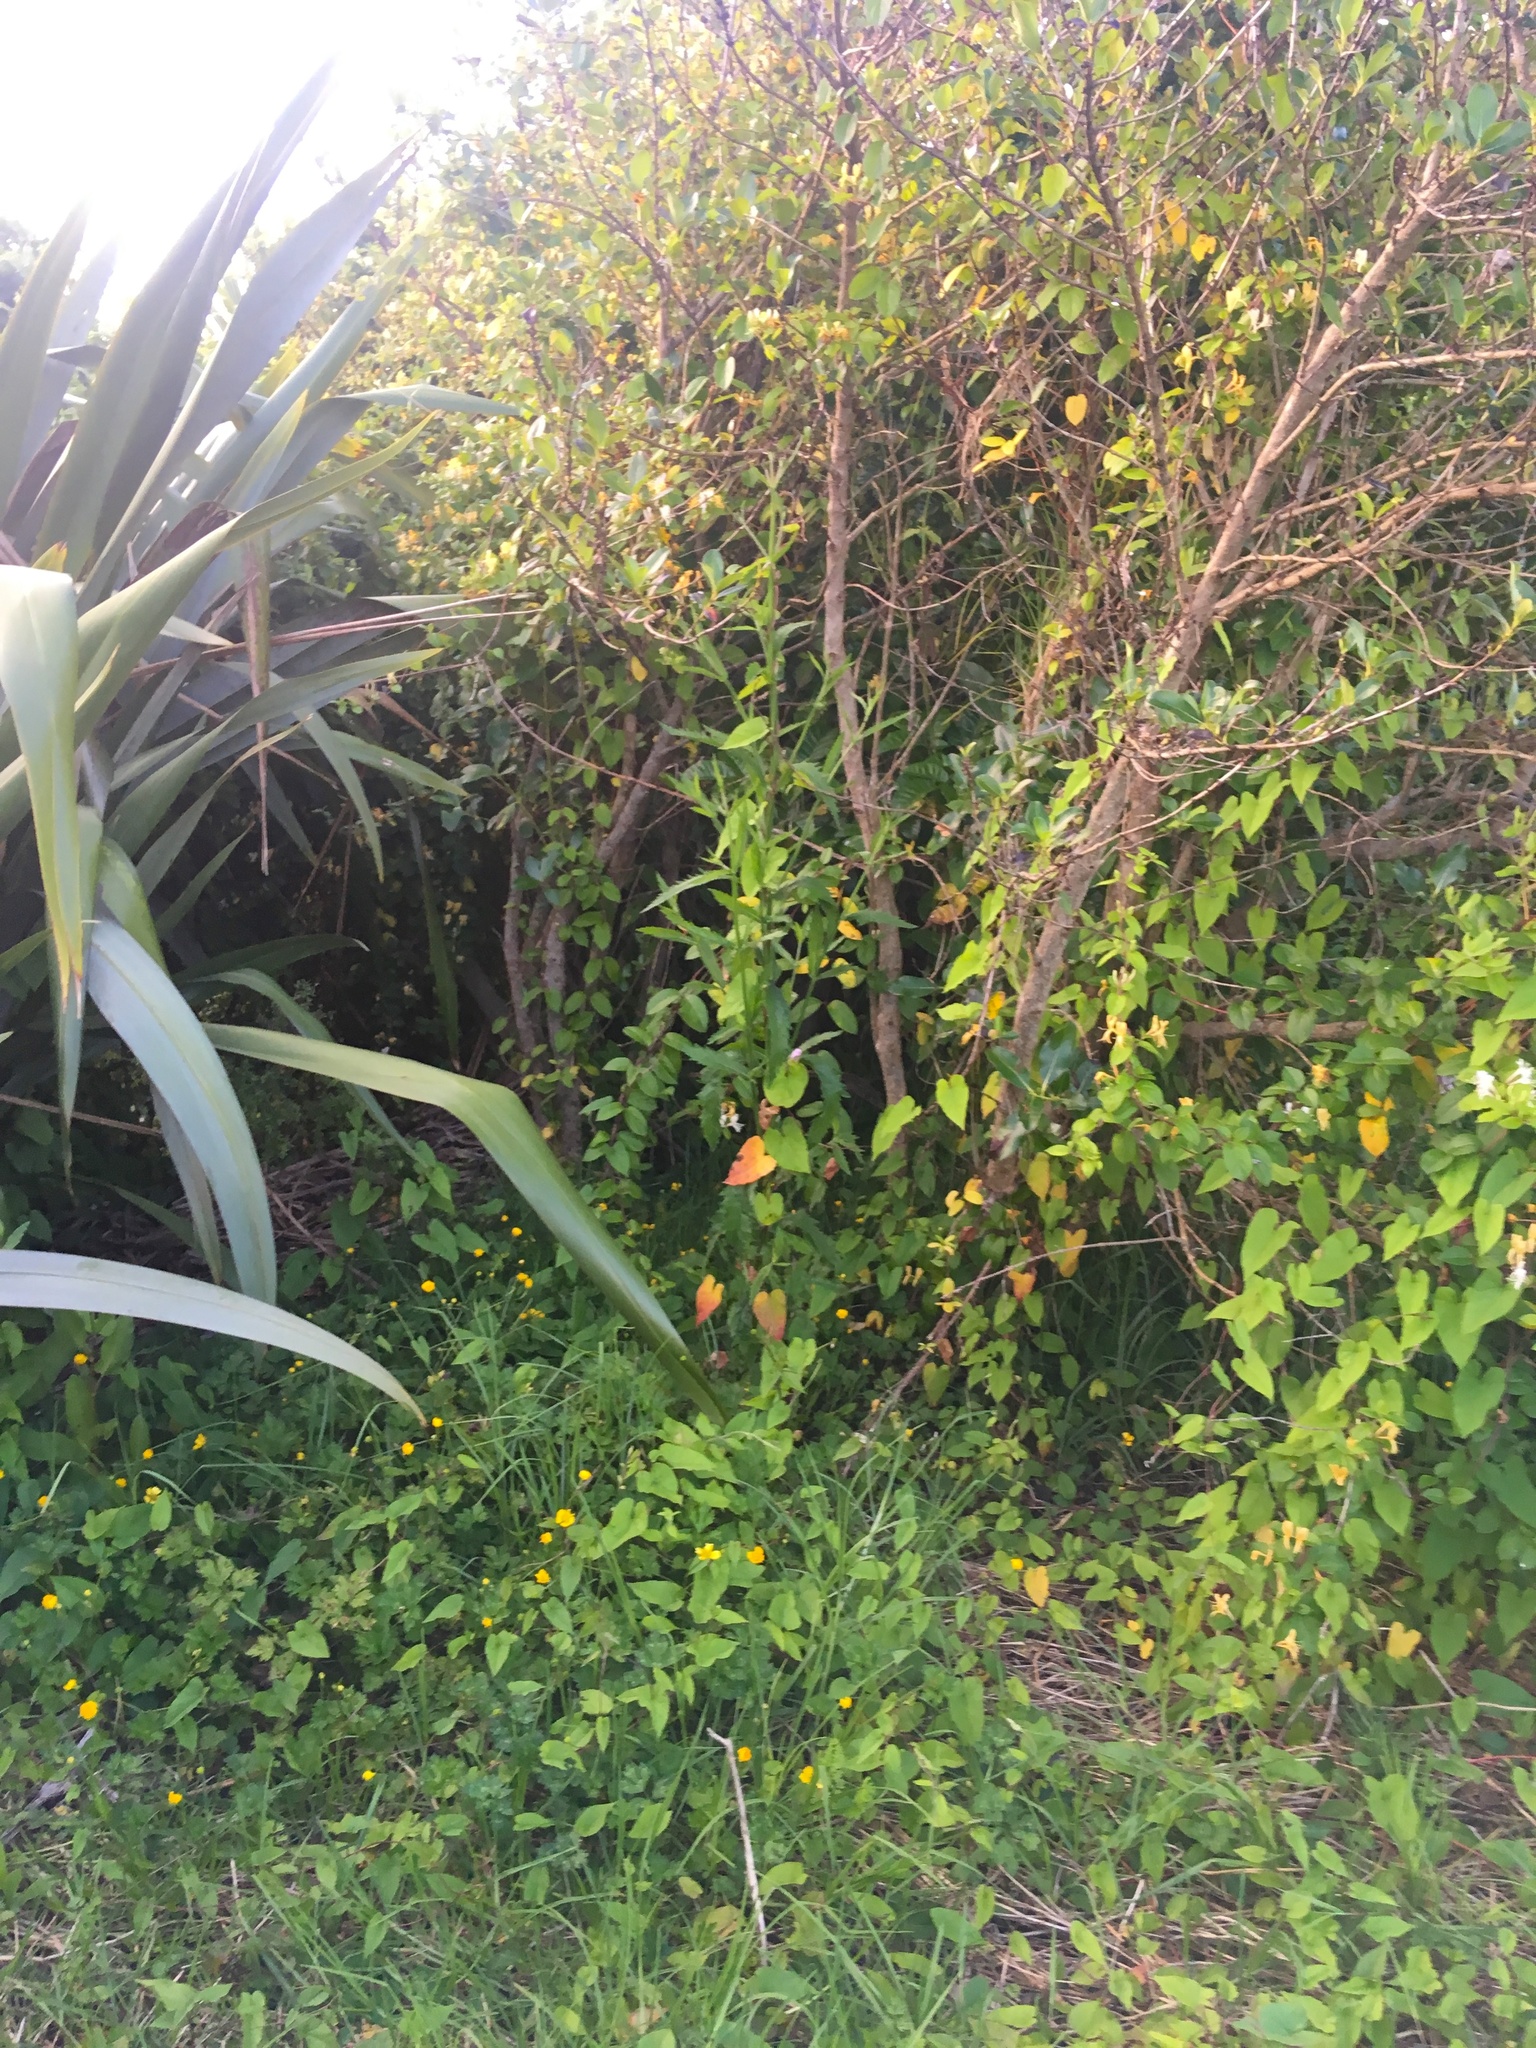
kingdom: Plantae
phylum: Tracheophyta
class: Magnoliopsida
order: Dipsacales
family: Caprifoliaceae
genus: Lonicera
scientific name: Lonicera japonica
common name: Japanese honeysuckle
